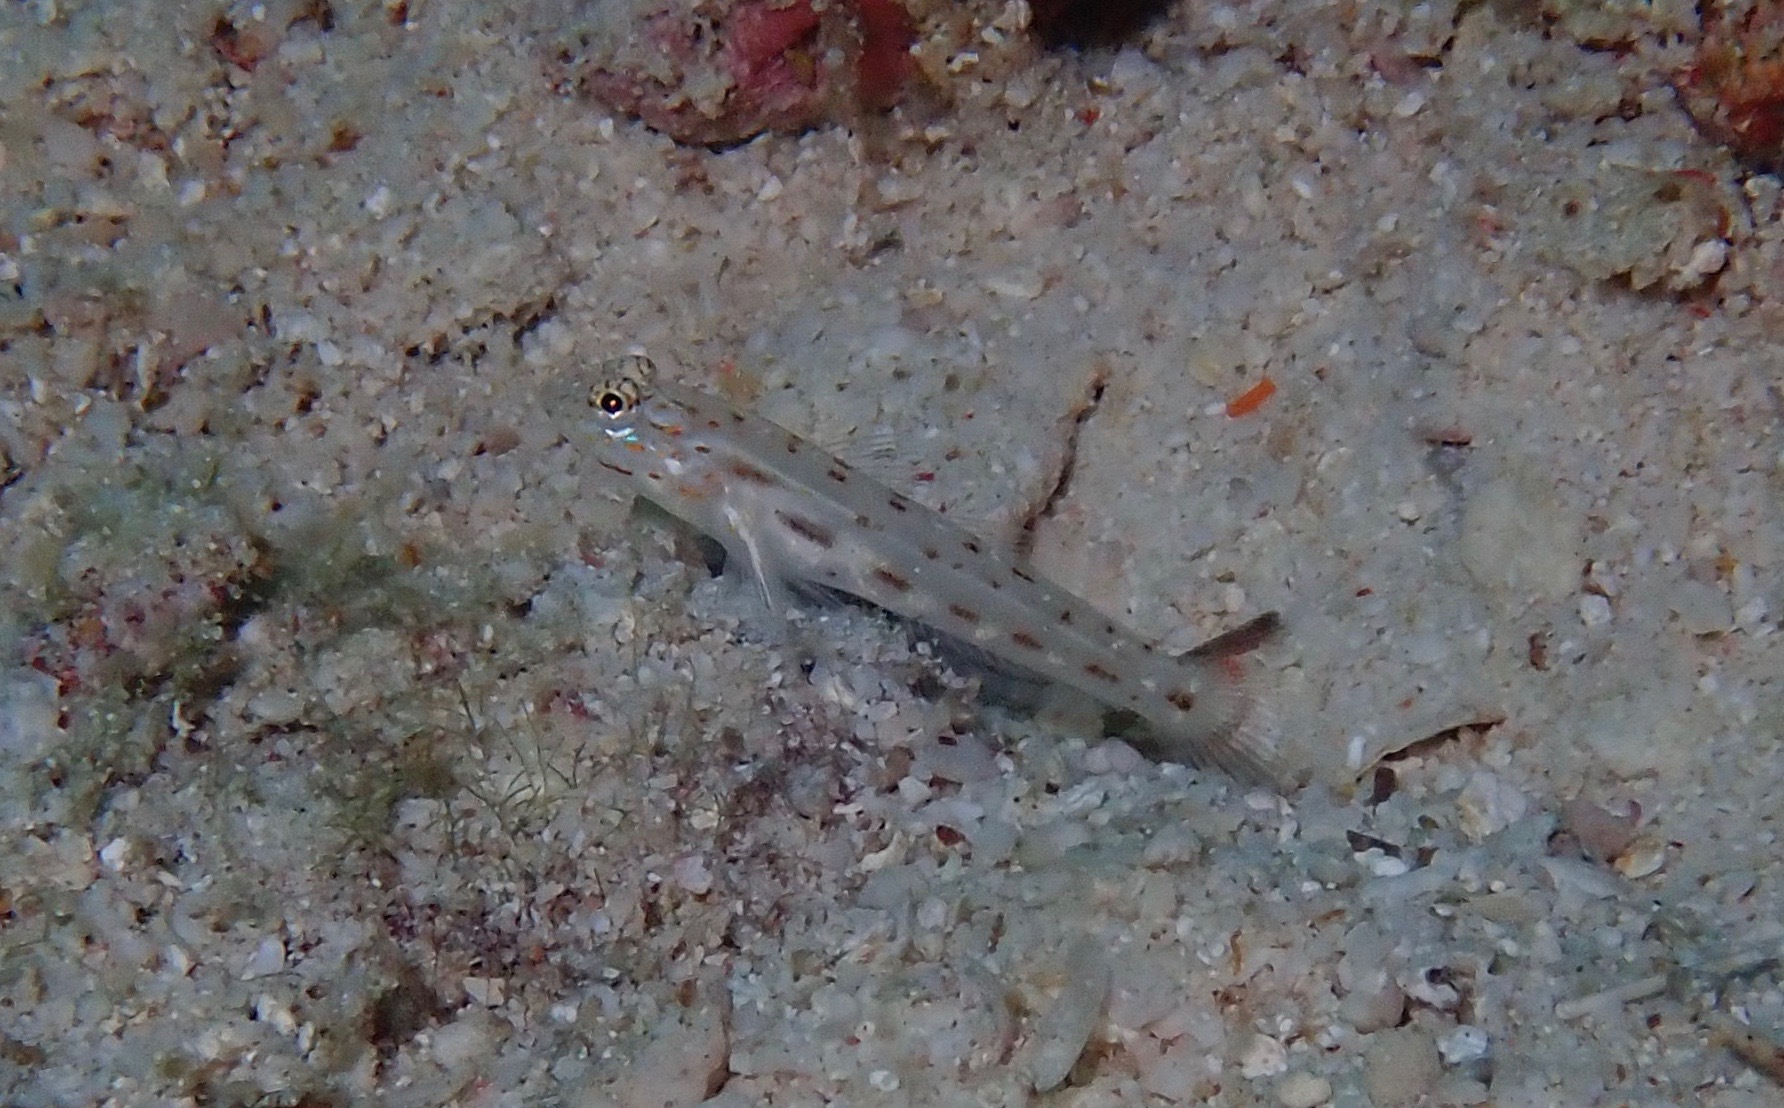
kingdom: Animalia
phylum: Chordata
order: Perciformes
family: Gobiidae
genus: Ctenogobiops
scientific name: Ctenogobiops crocineus
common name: Silverspot shrimpgoby
